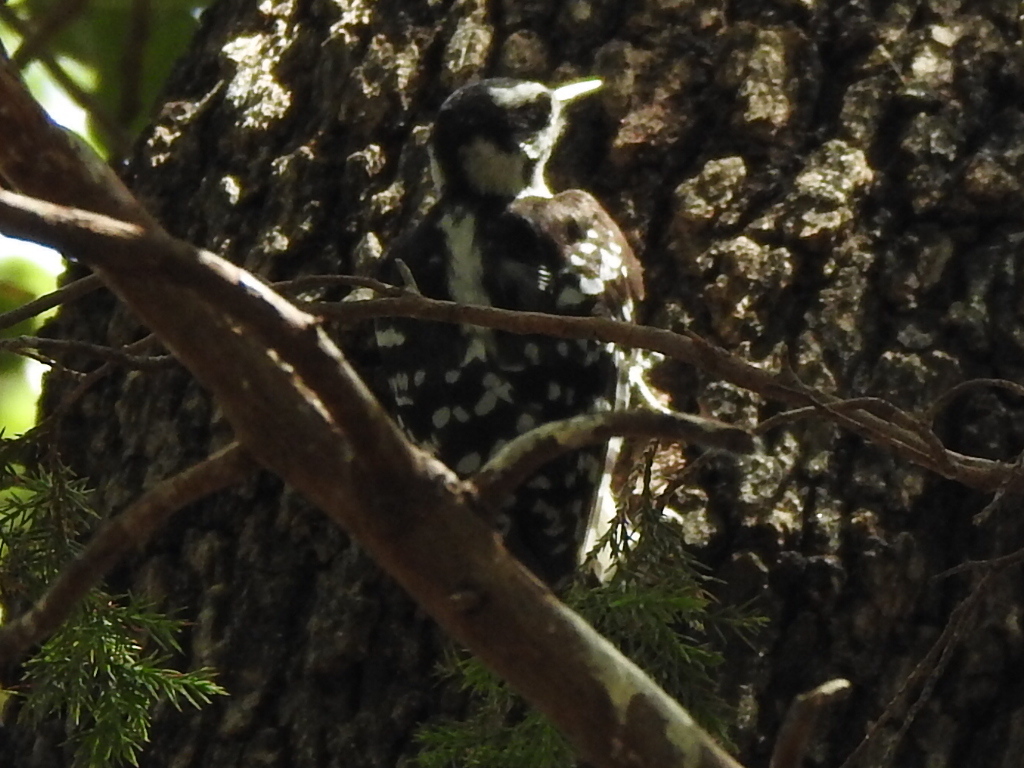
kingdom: Animalia
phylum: Chordata
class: Aves
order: Piciformes
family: Picidae
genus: Dryobates
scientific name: Dryobates pubescens
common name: Downy woodpecker
